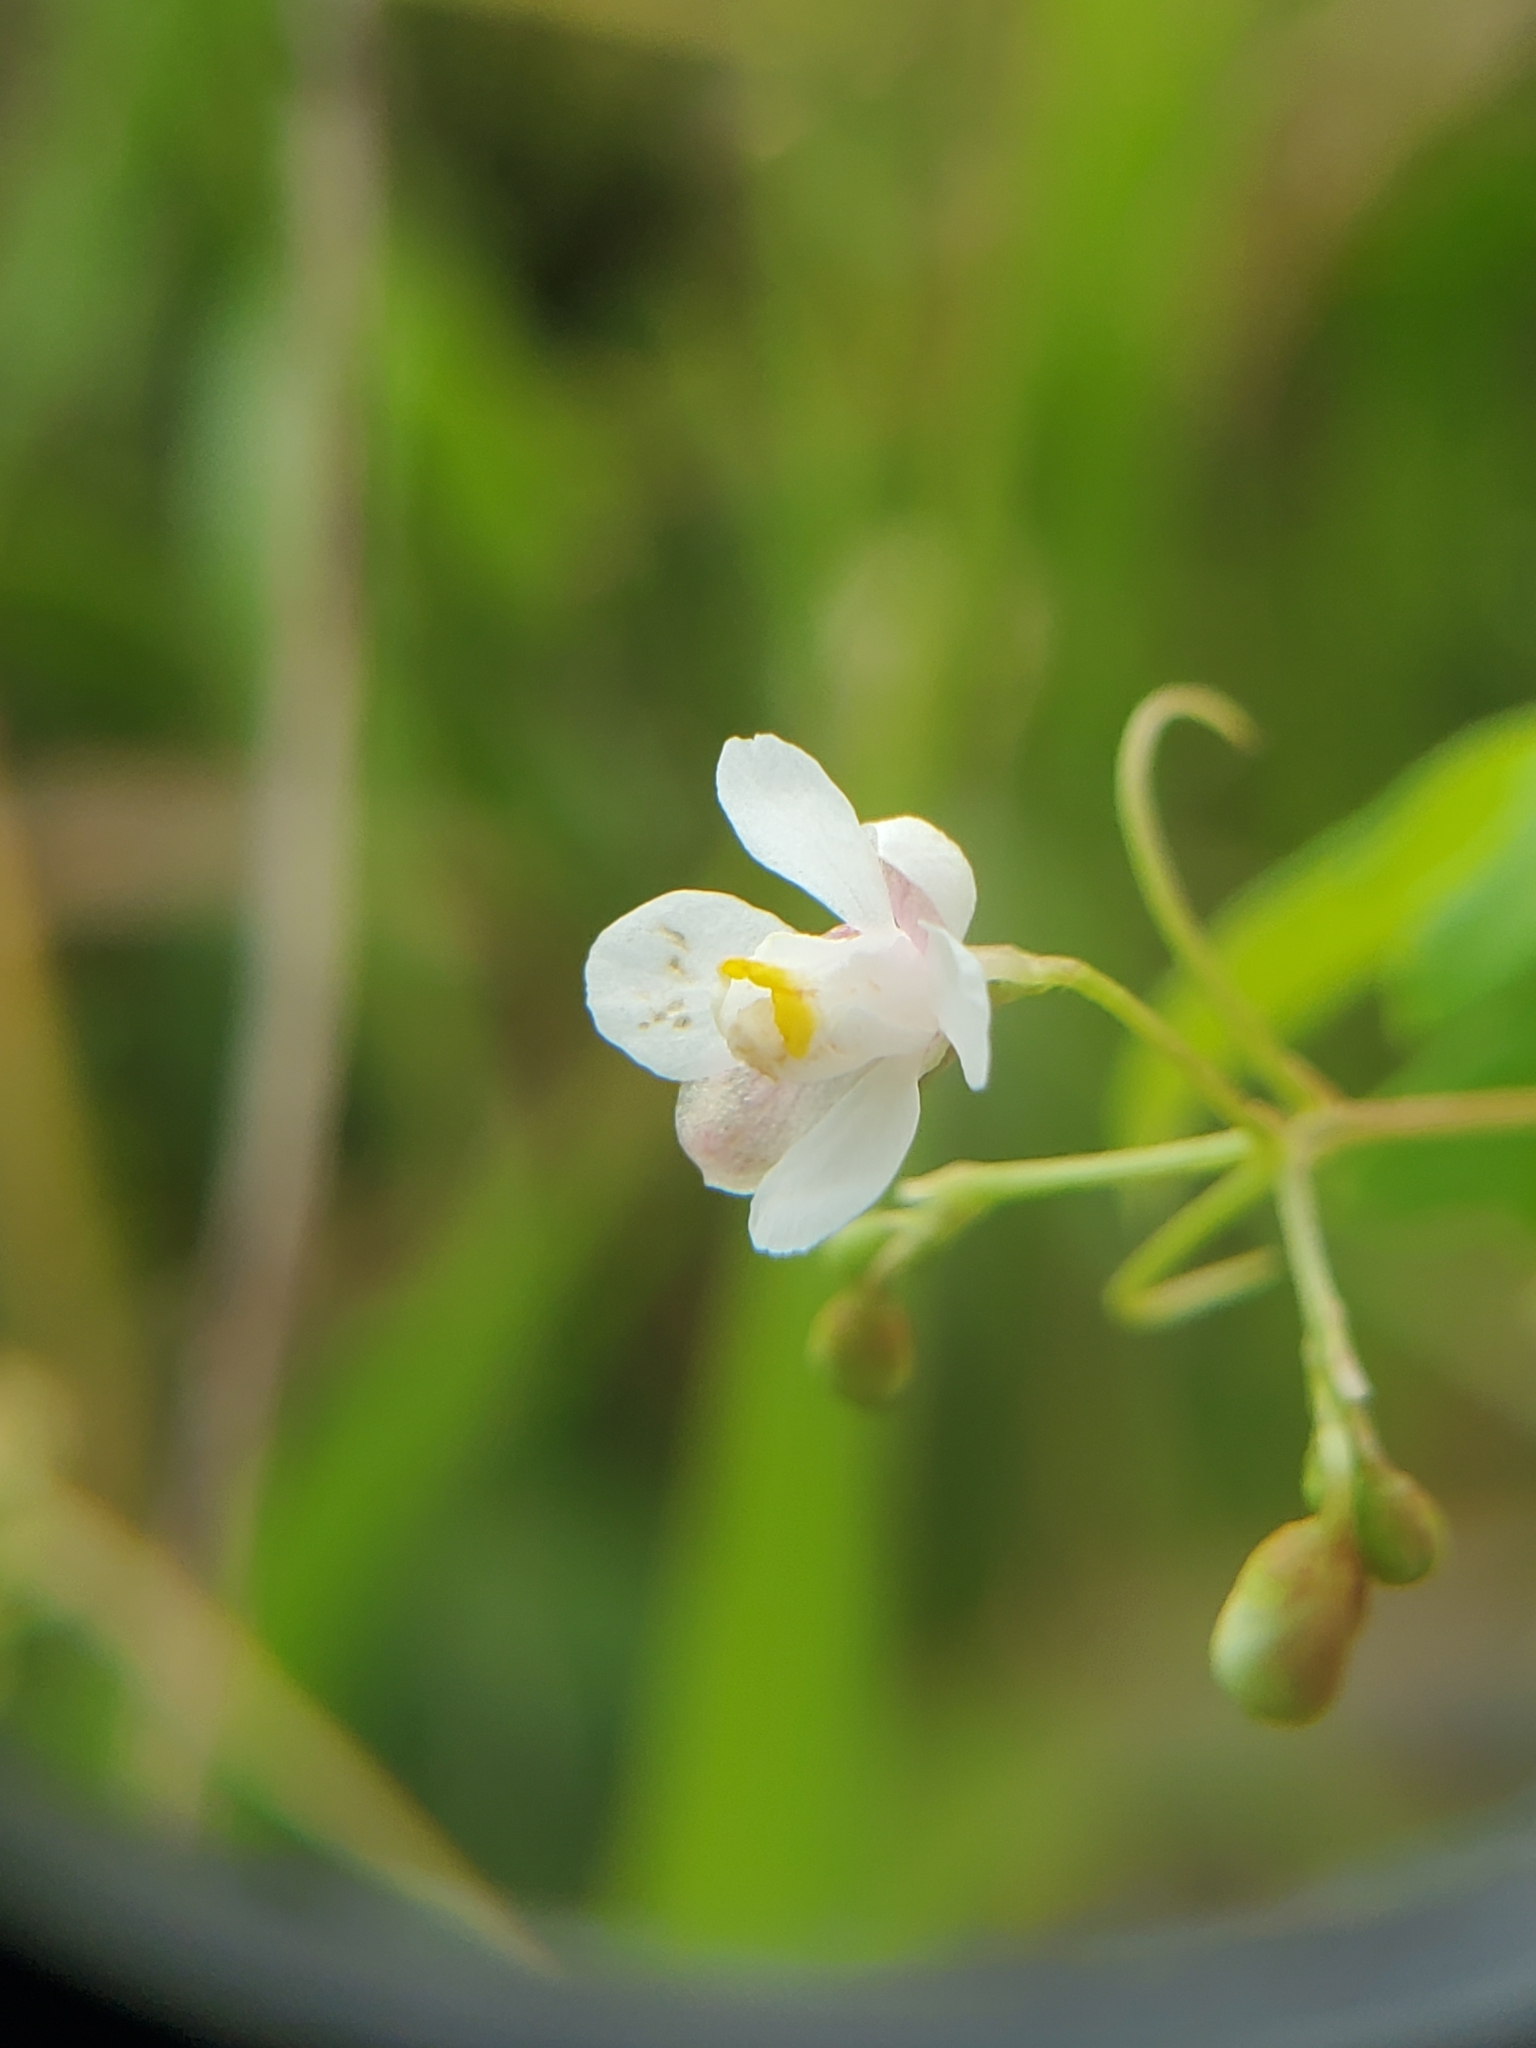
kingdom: Plantae
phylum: Tracheophyta
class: Magnoliopsida
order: Sapindales
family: Sapindaceae
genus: Cardiospermum
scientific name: Cardiospermum halicacabum
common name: Balloon vine
